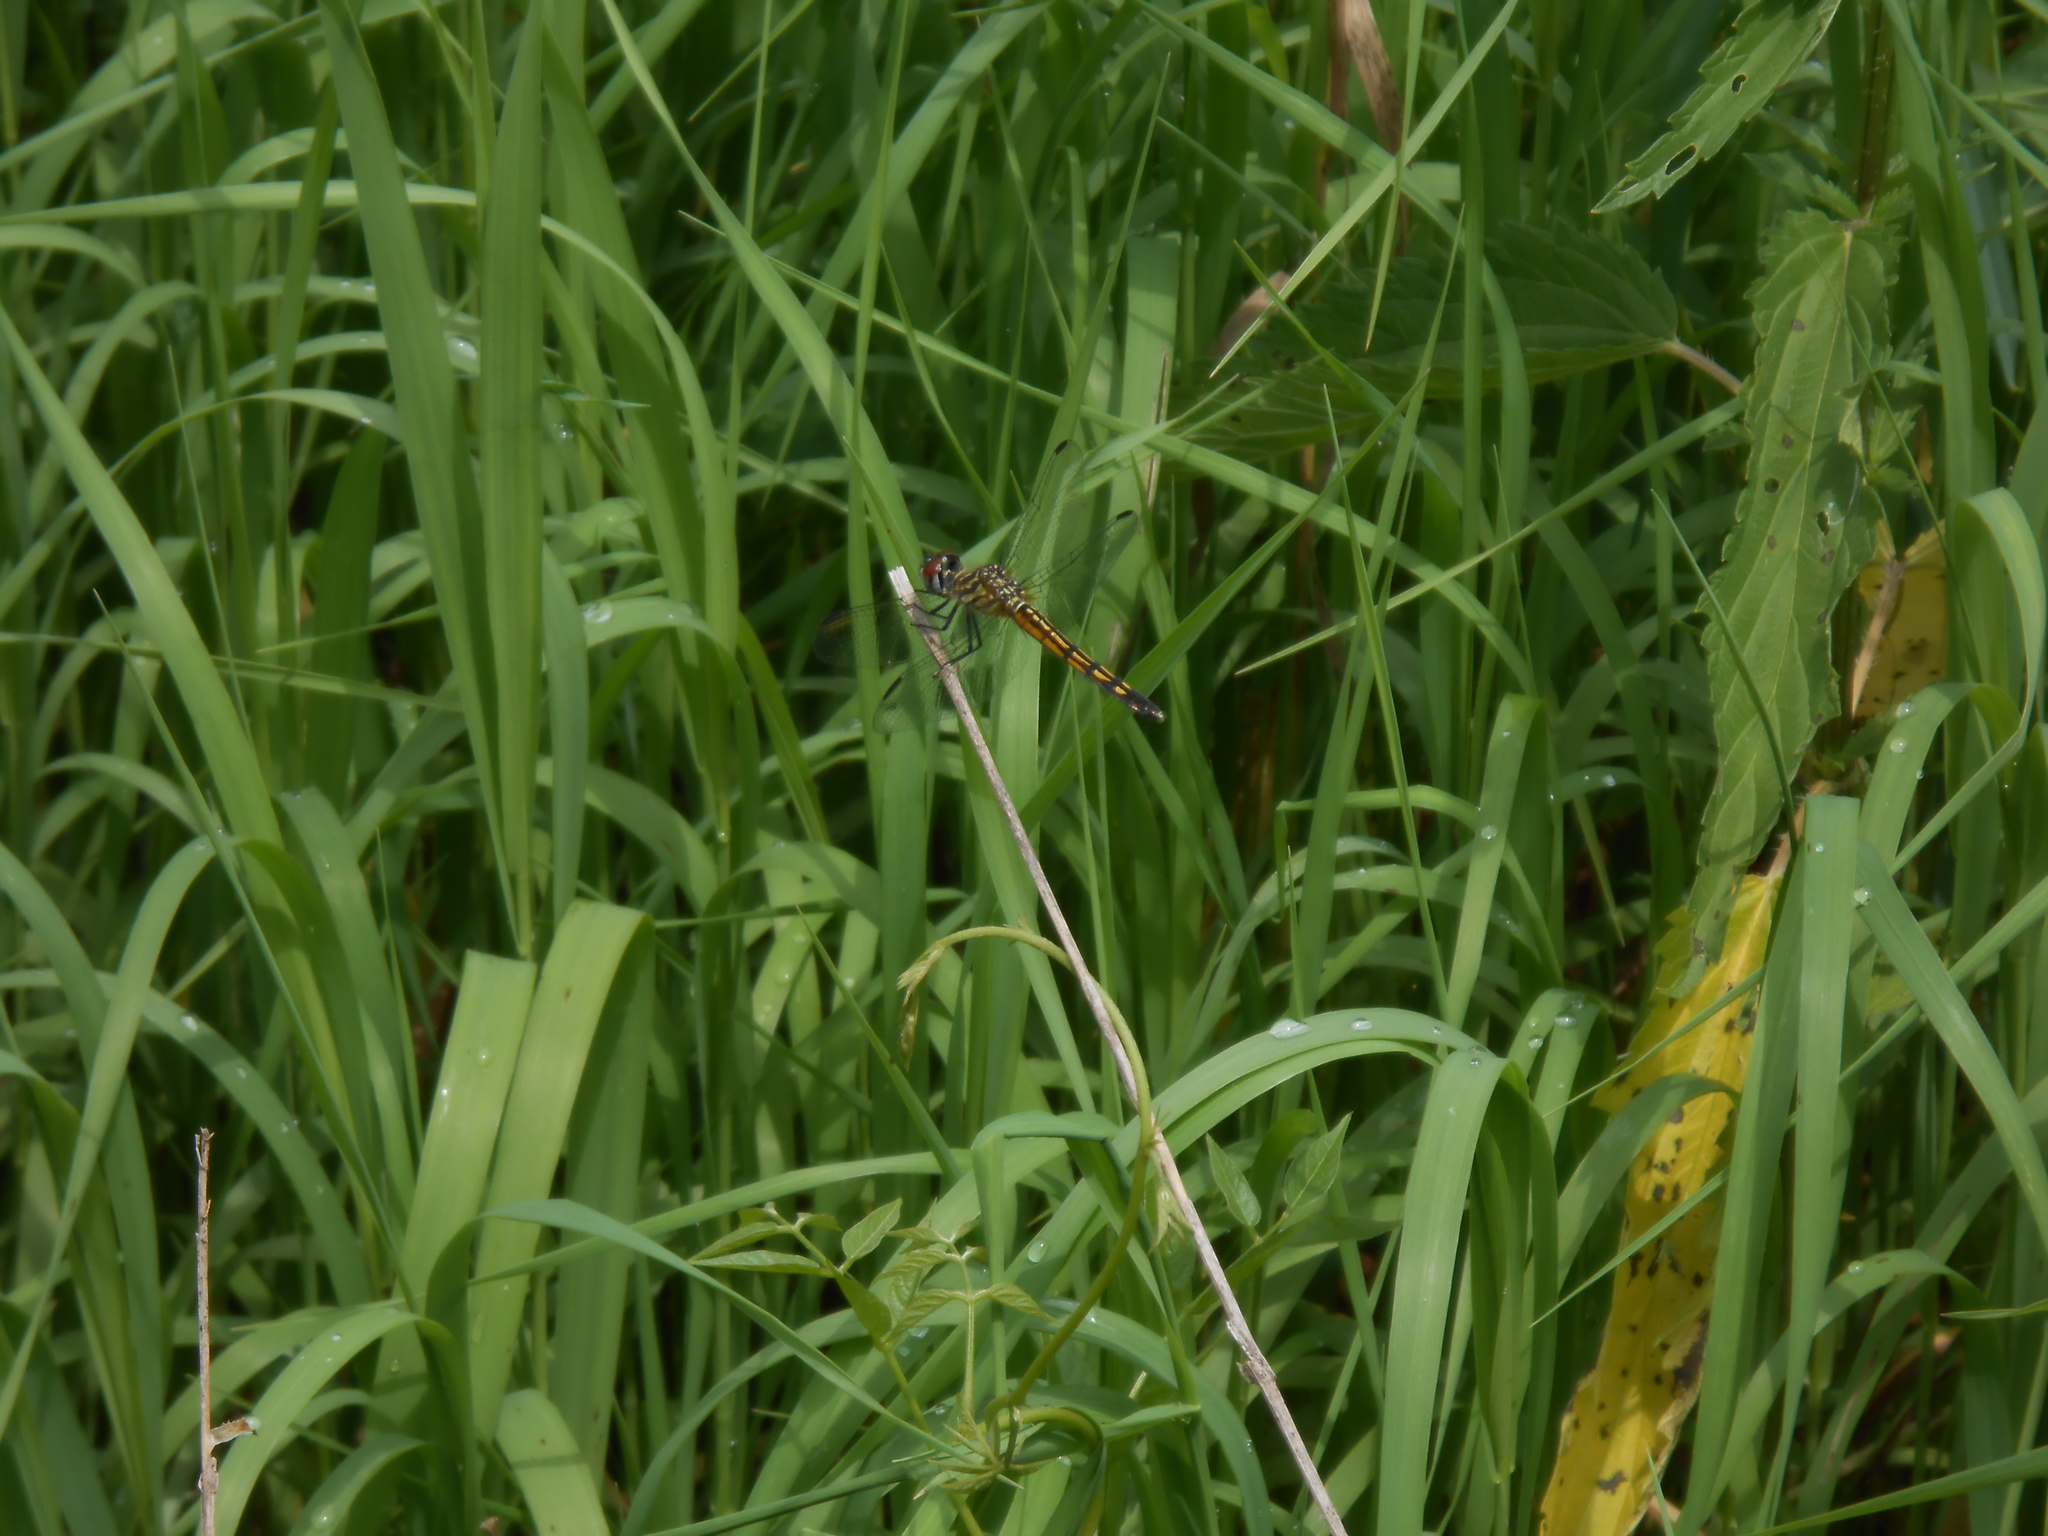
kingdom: Animalia
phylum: Arthropoda
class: Insecta
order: Odonata
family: Libellulidae
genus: Pachydiplax
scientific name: Pachydiplax longipennis
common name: Blue dasher
